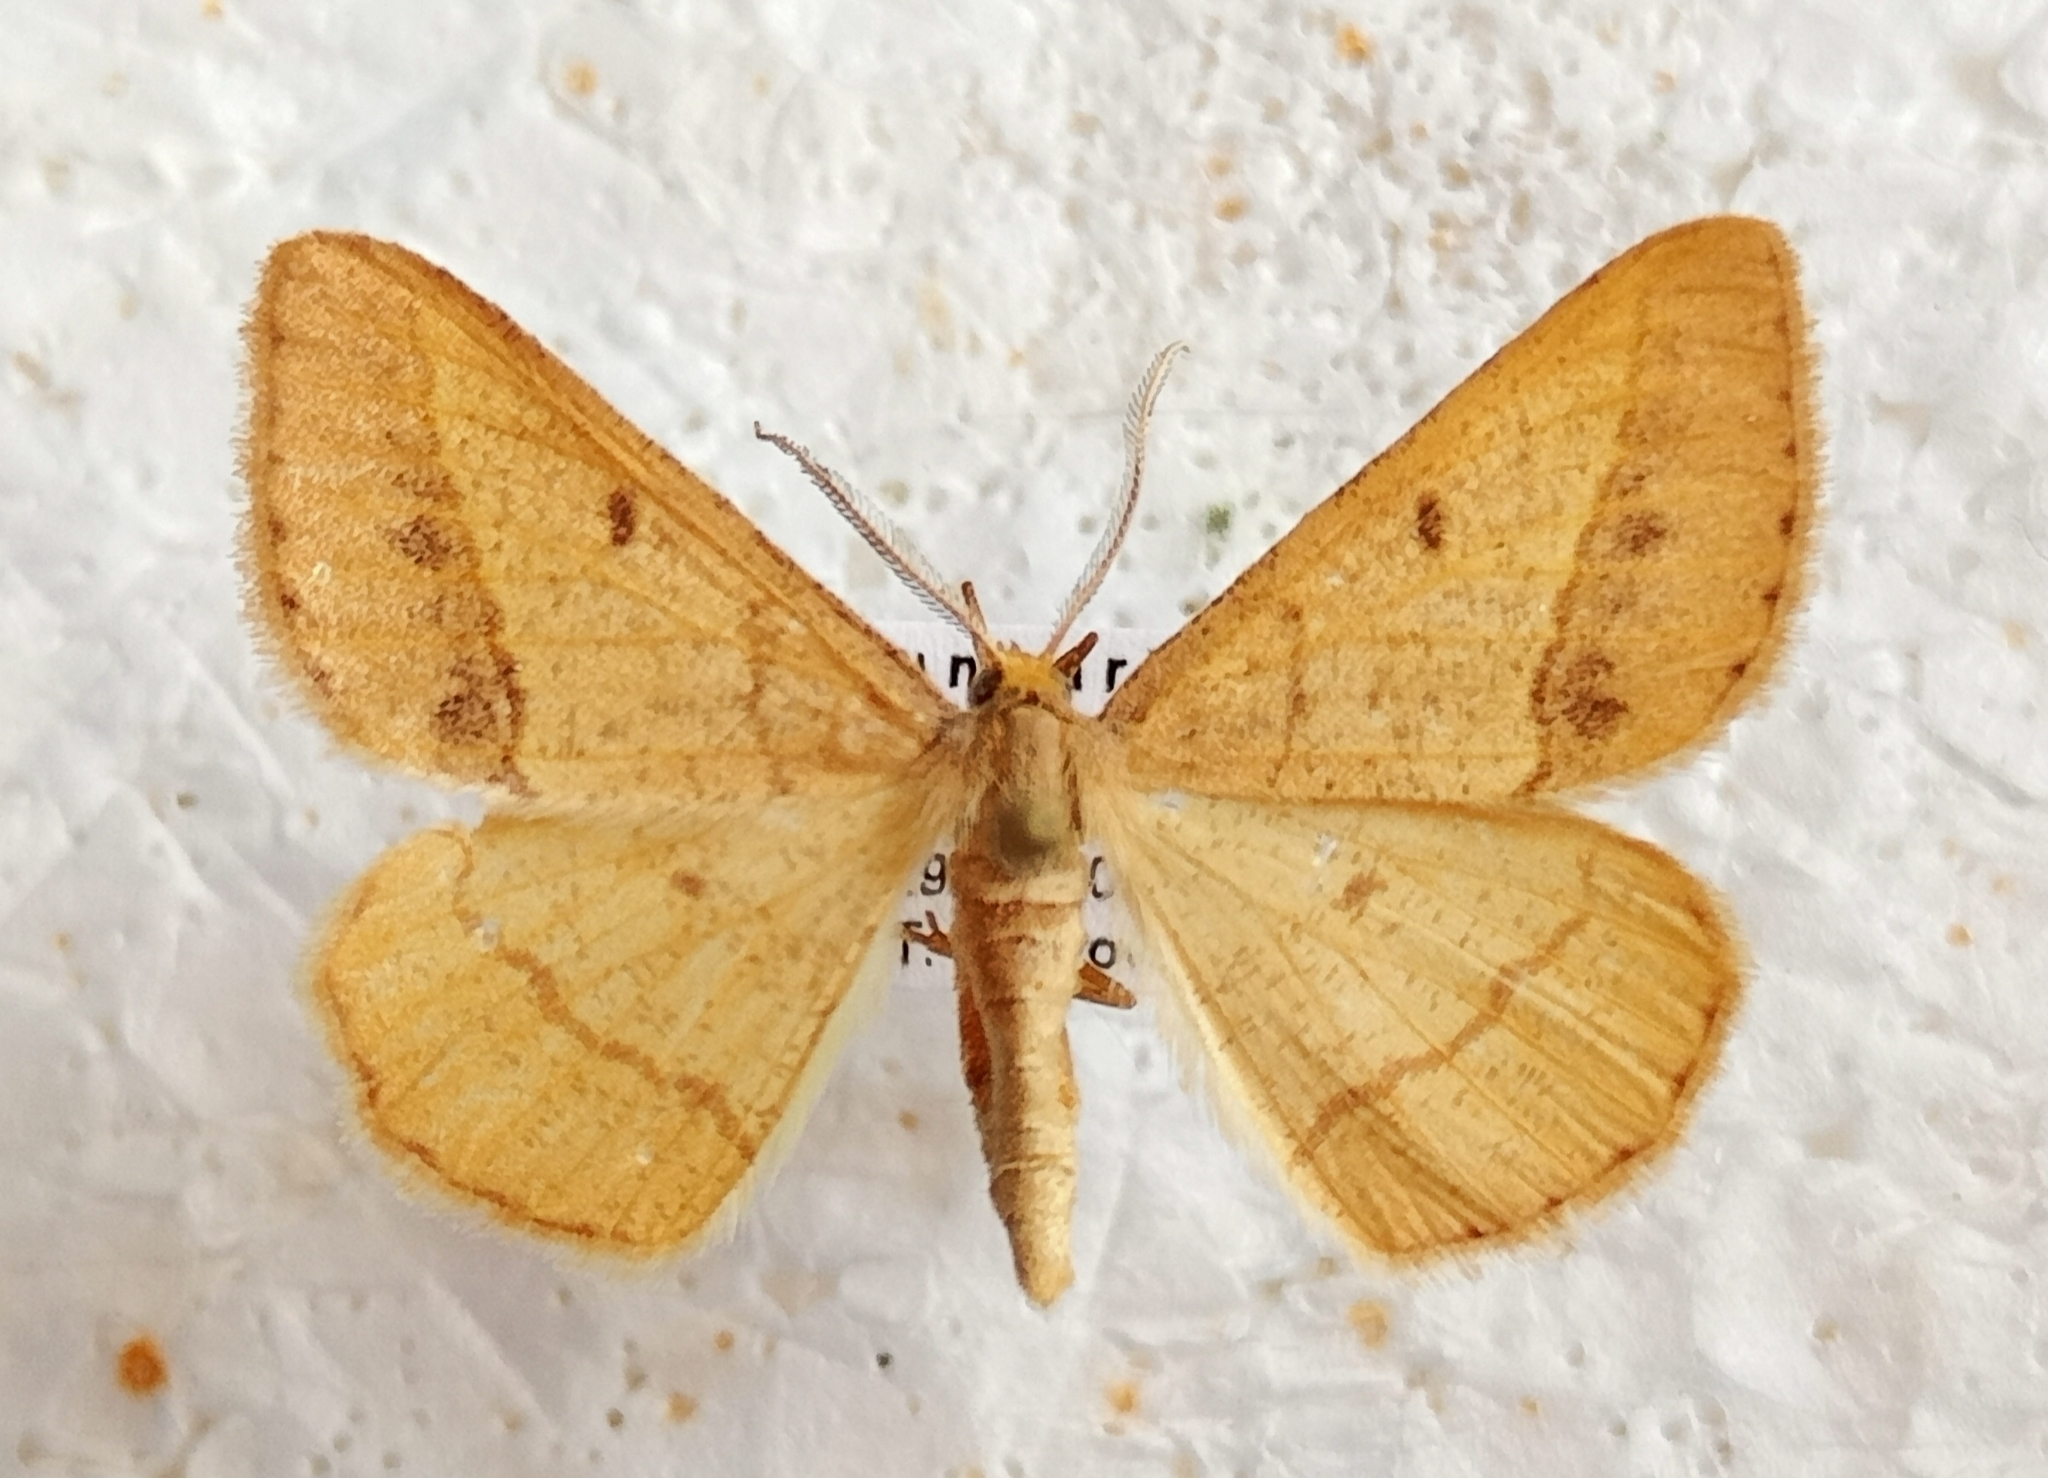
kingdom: Animalia
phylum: Arthropoda
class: Insecta
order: Lepidoptera
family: Geometridae
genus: Tephrina
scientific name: Tephrina arenacearia
